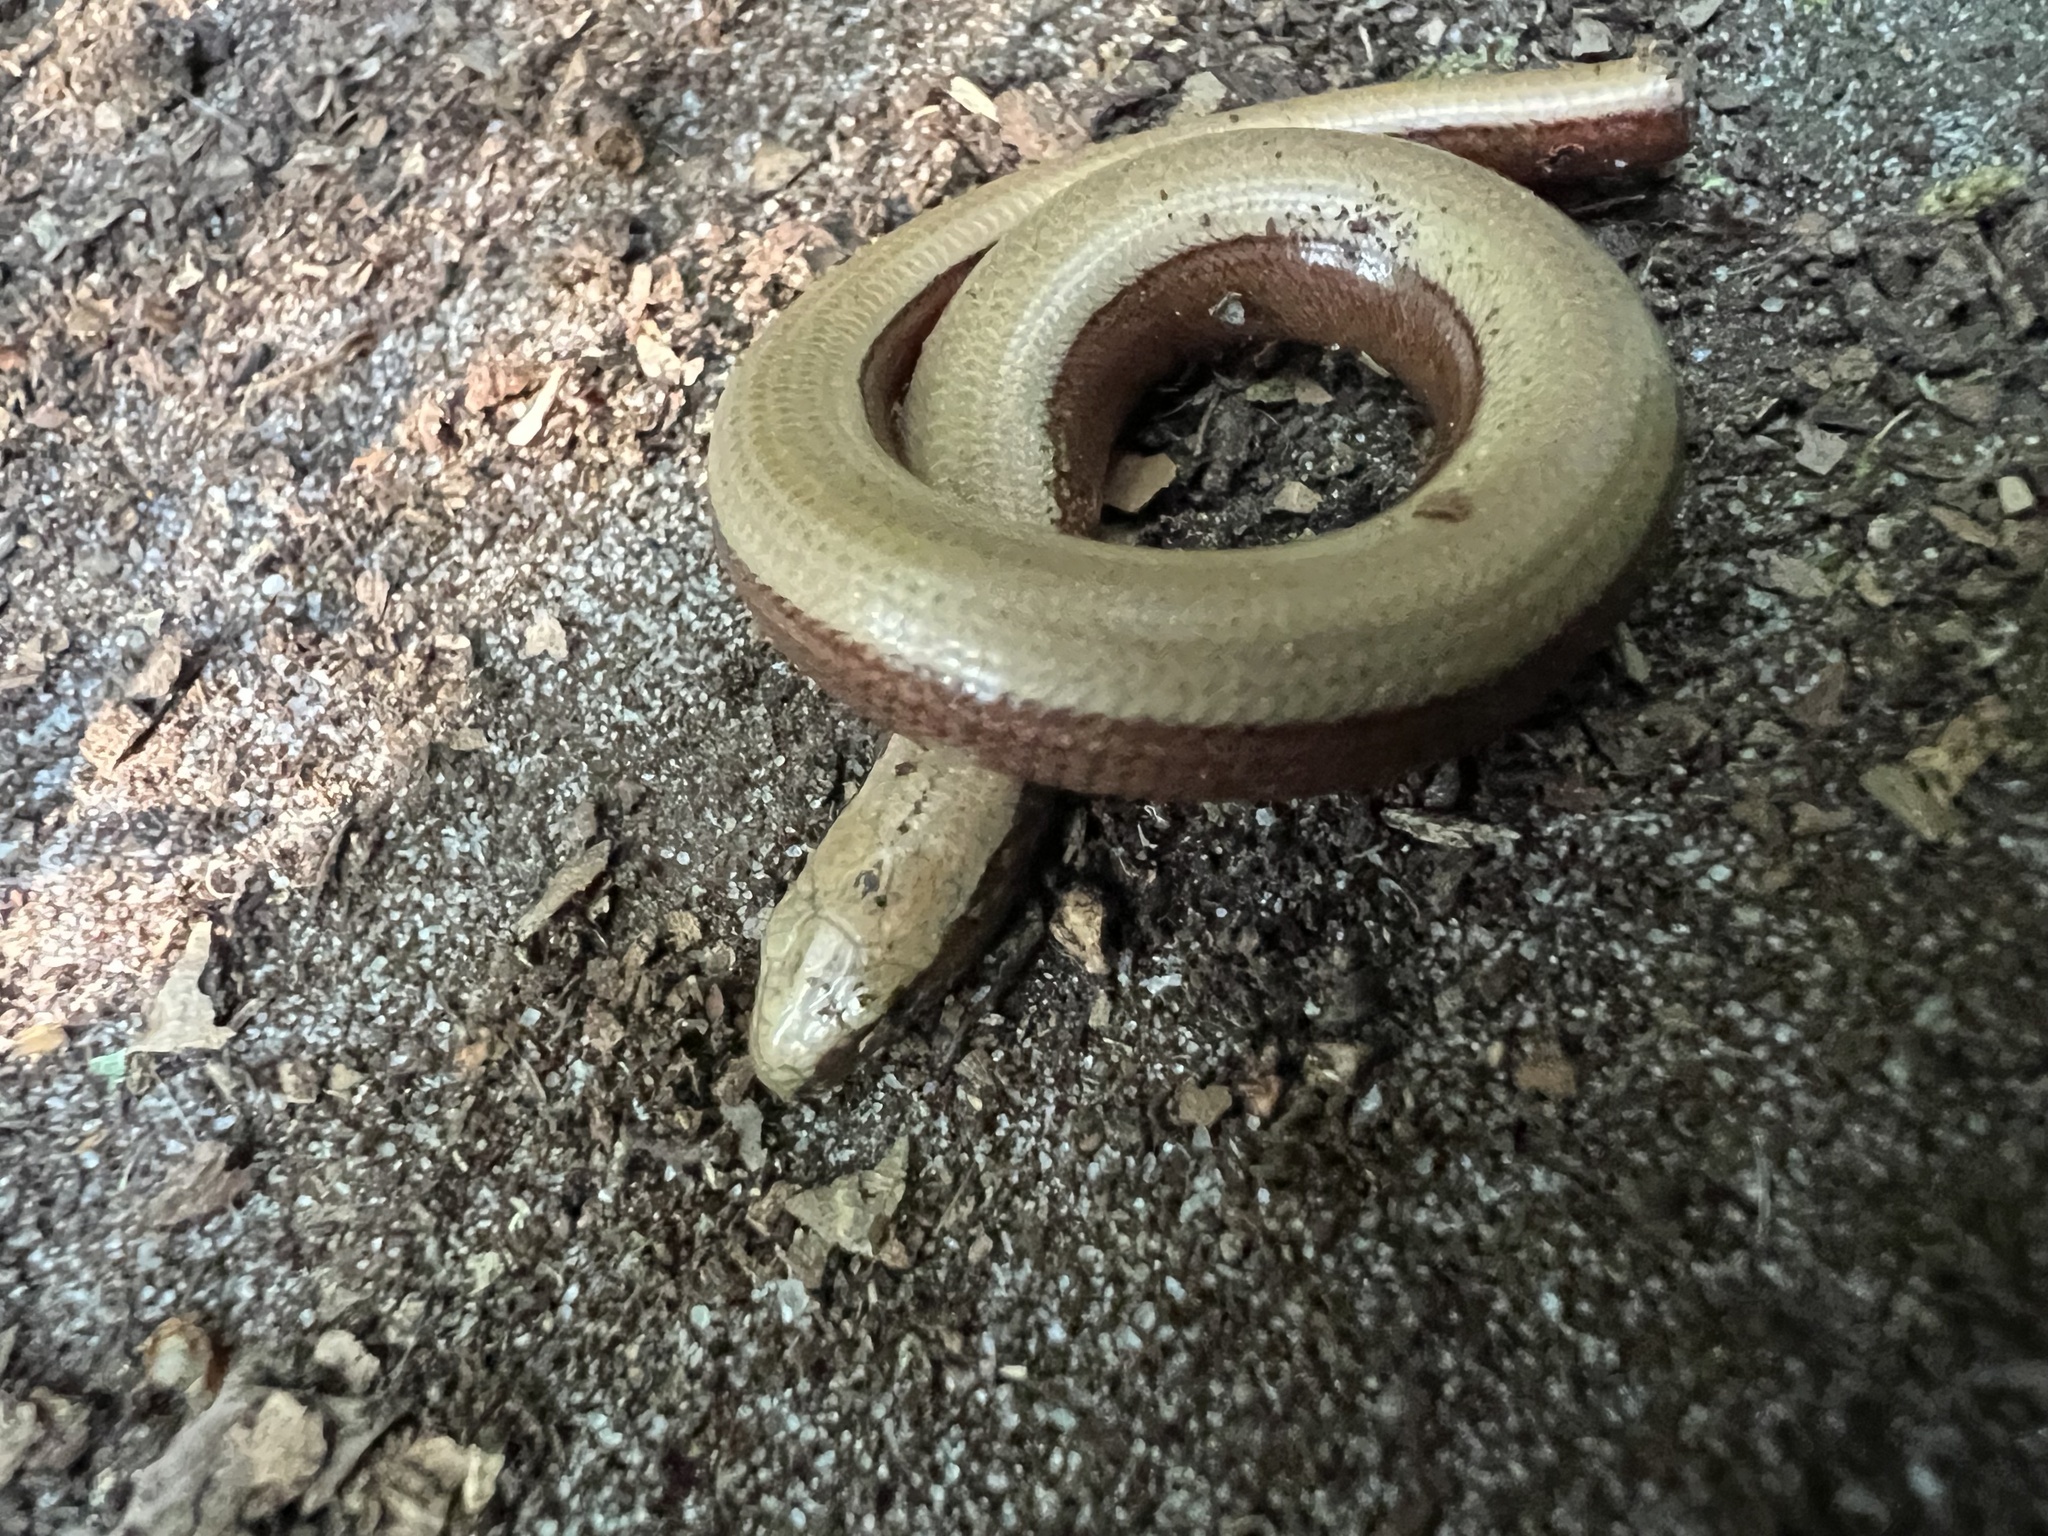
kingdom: Animalia
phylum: Chordata
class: Squamata
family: Anguidae
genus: Anguis
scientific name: Anguis fragilis
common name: Slow worm
